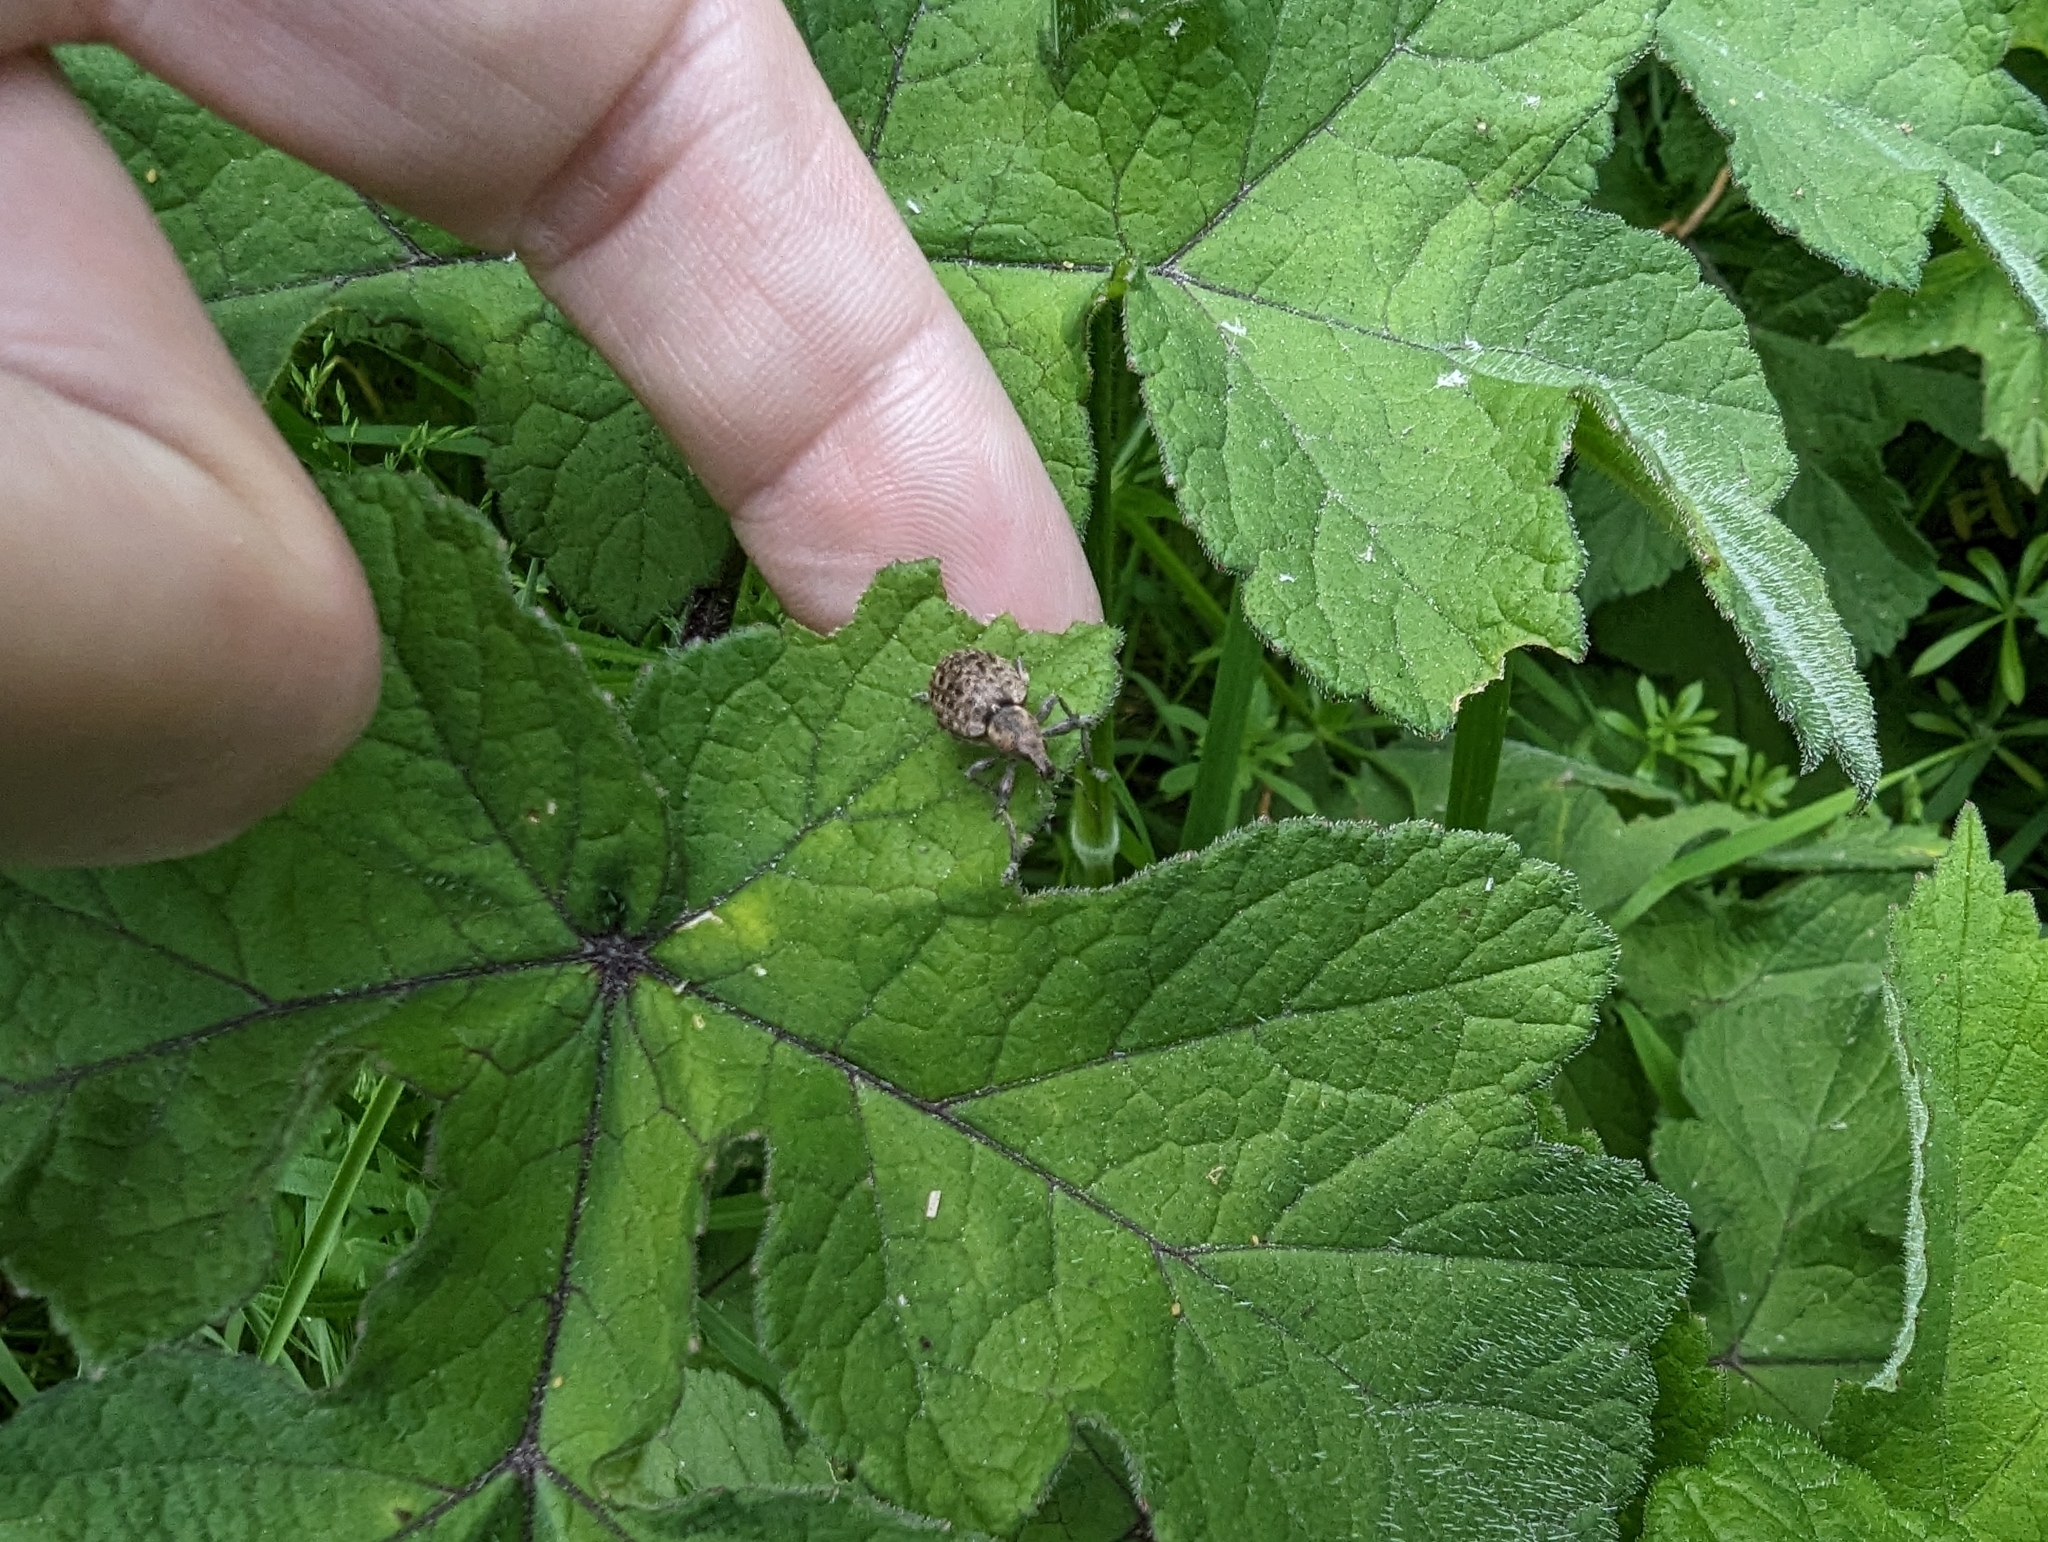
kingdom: Animalia
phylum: Arthropoda
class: Insecta
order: Coleoptera
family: Curculionidae
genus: Liophloeus
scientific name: Liophloeus tessulatus
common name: Weevil
